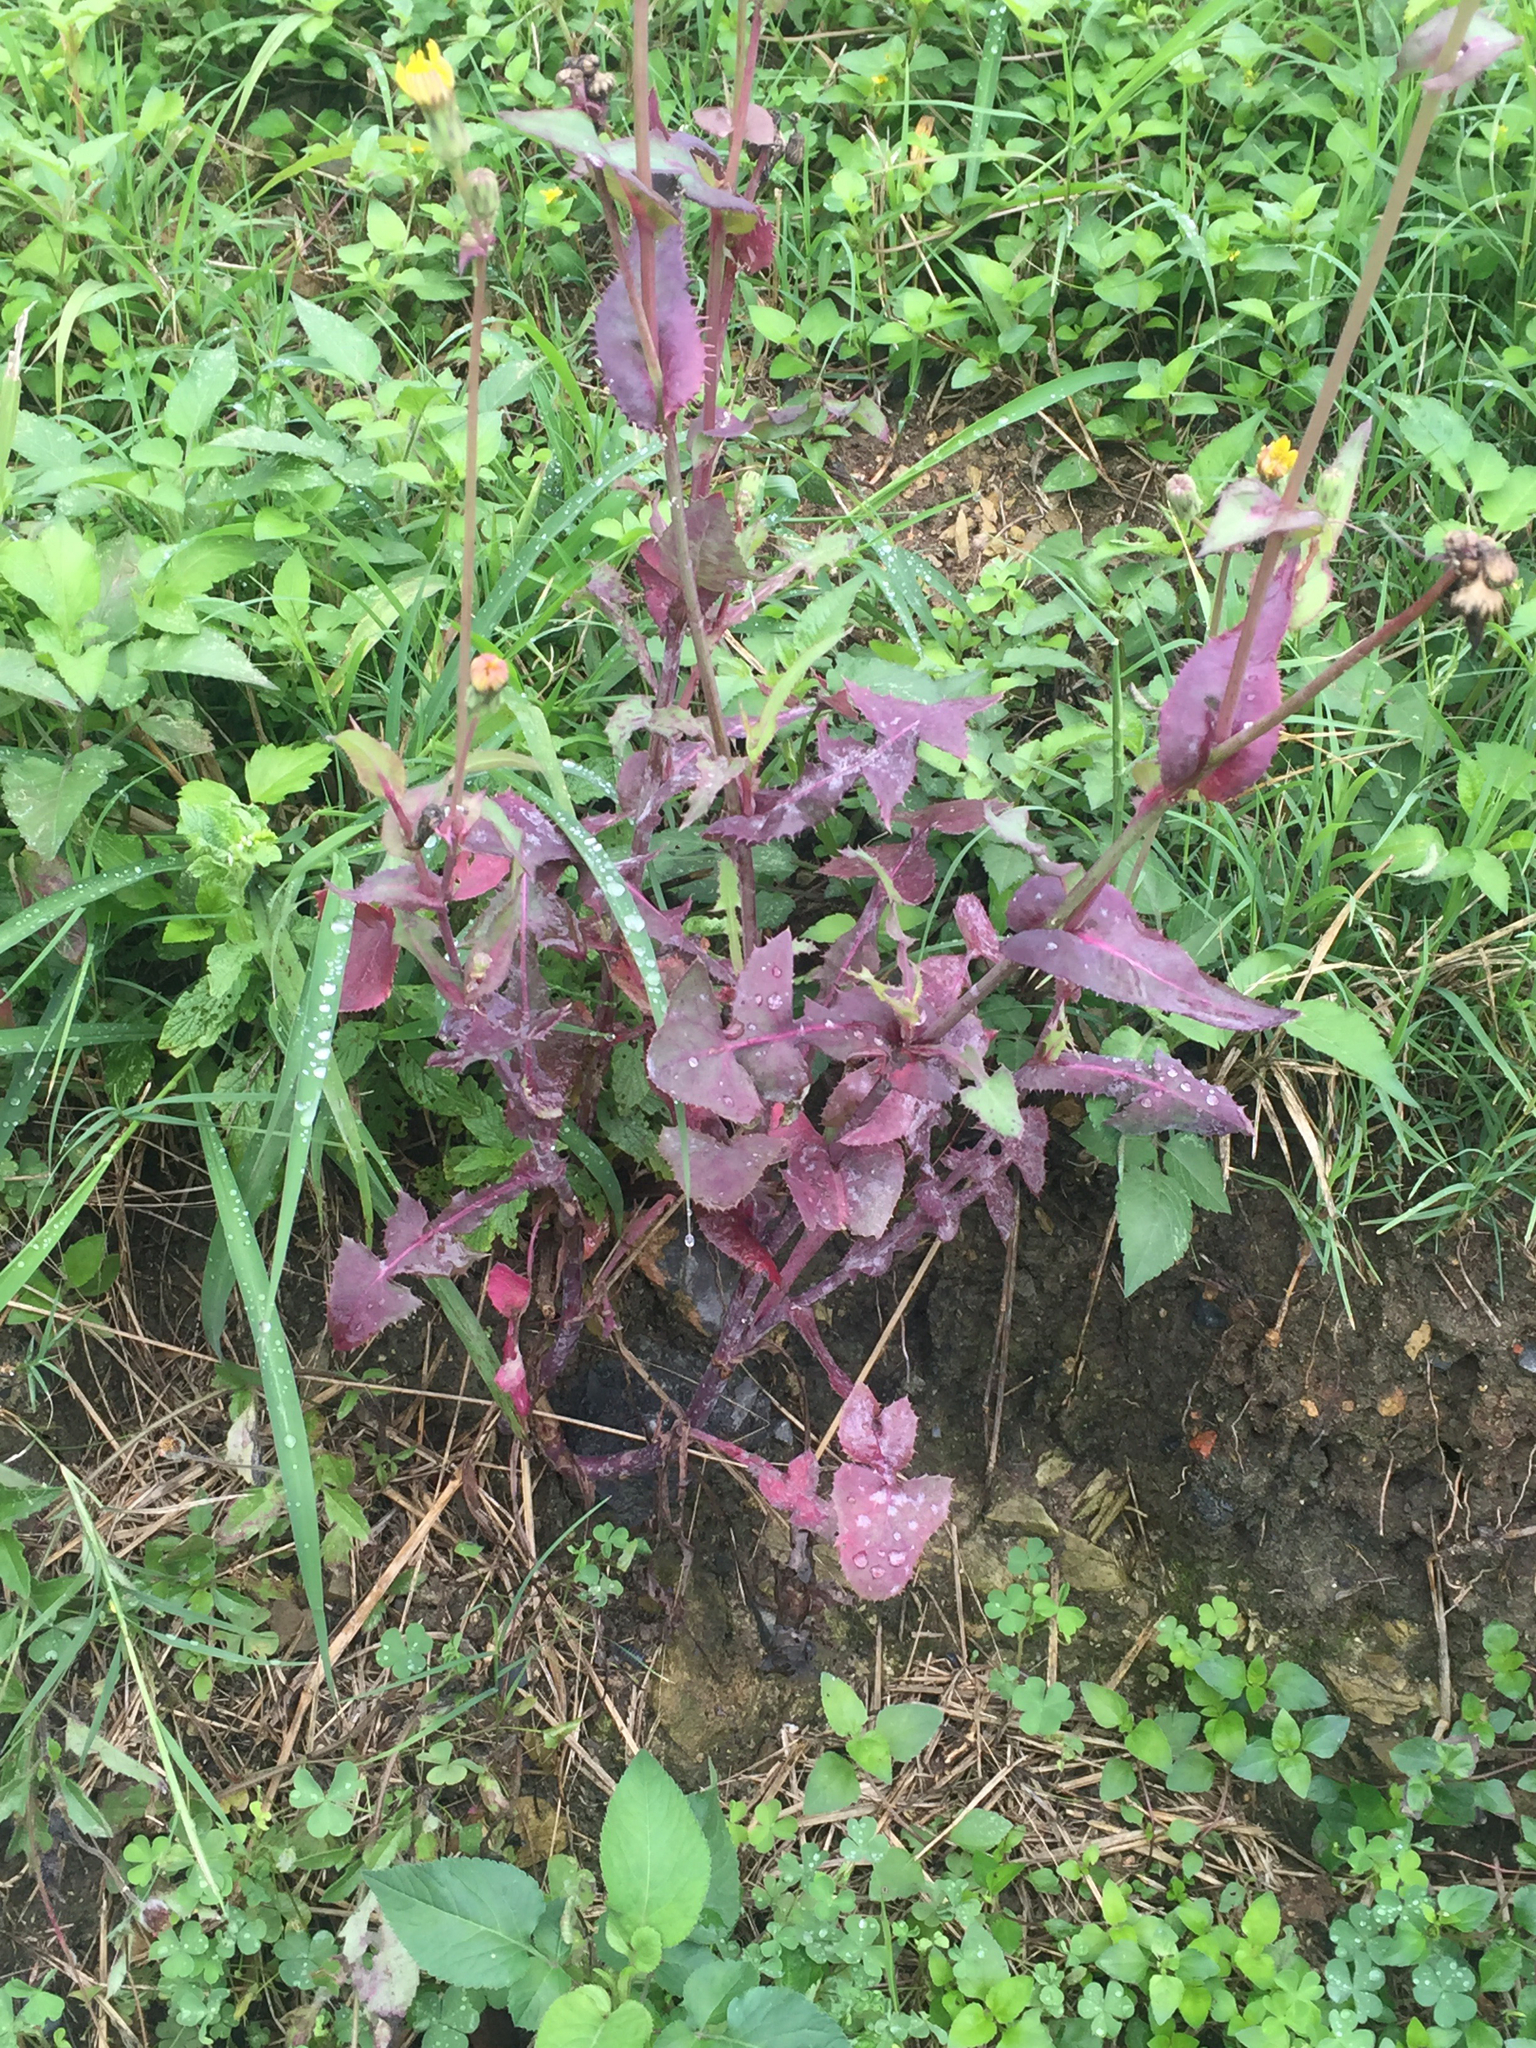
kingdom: Plantae
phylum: Tracheophyta
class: Magnoliopsida
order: Asterales
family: Asteraceae
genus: Sonchus
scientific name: Sonchus oleraceus
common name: Common sowthistle
